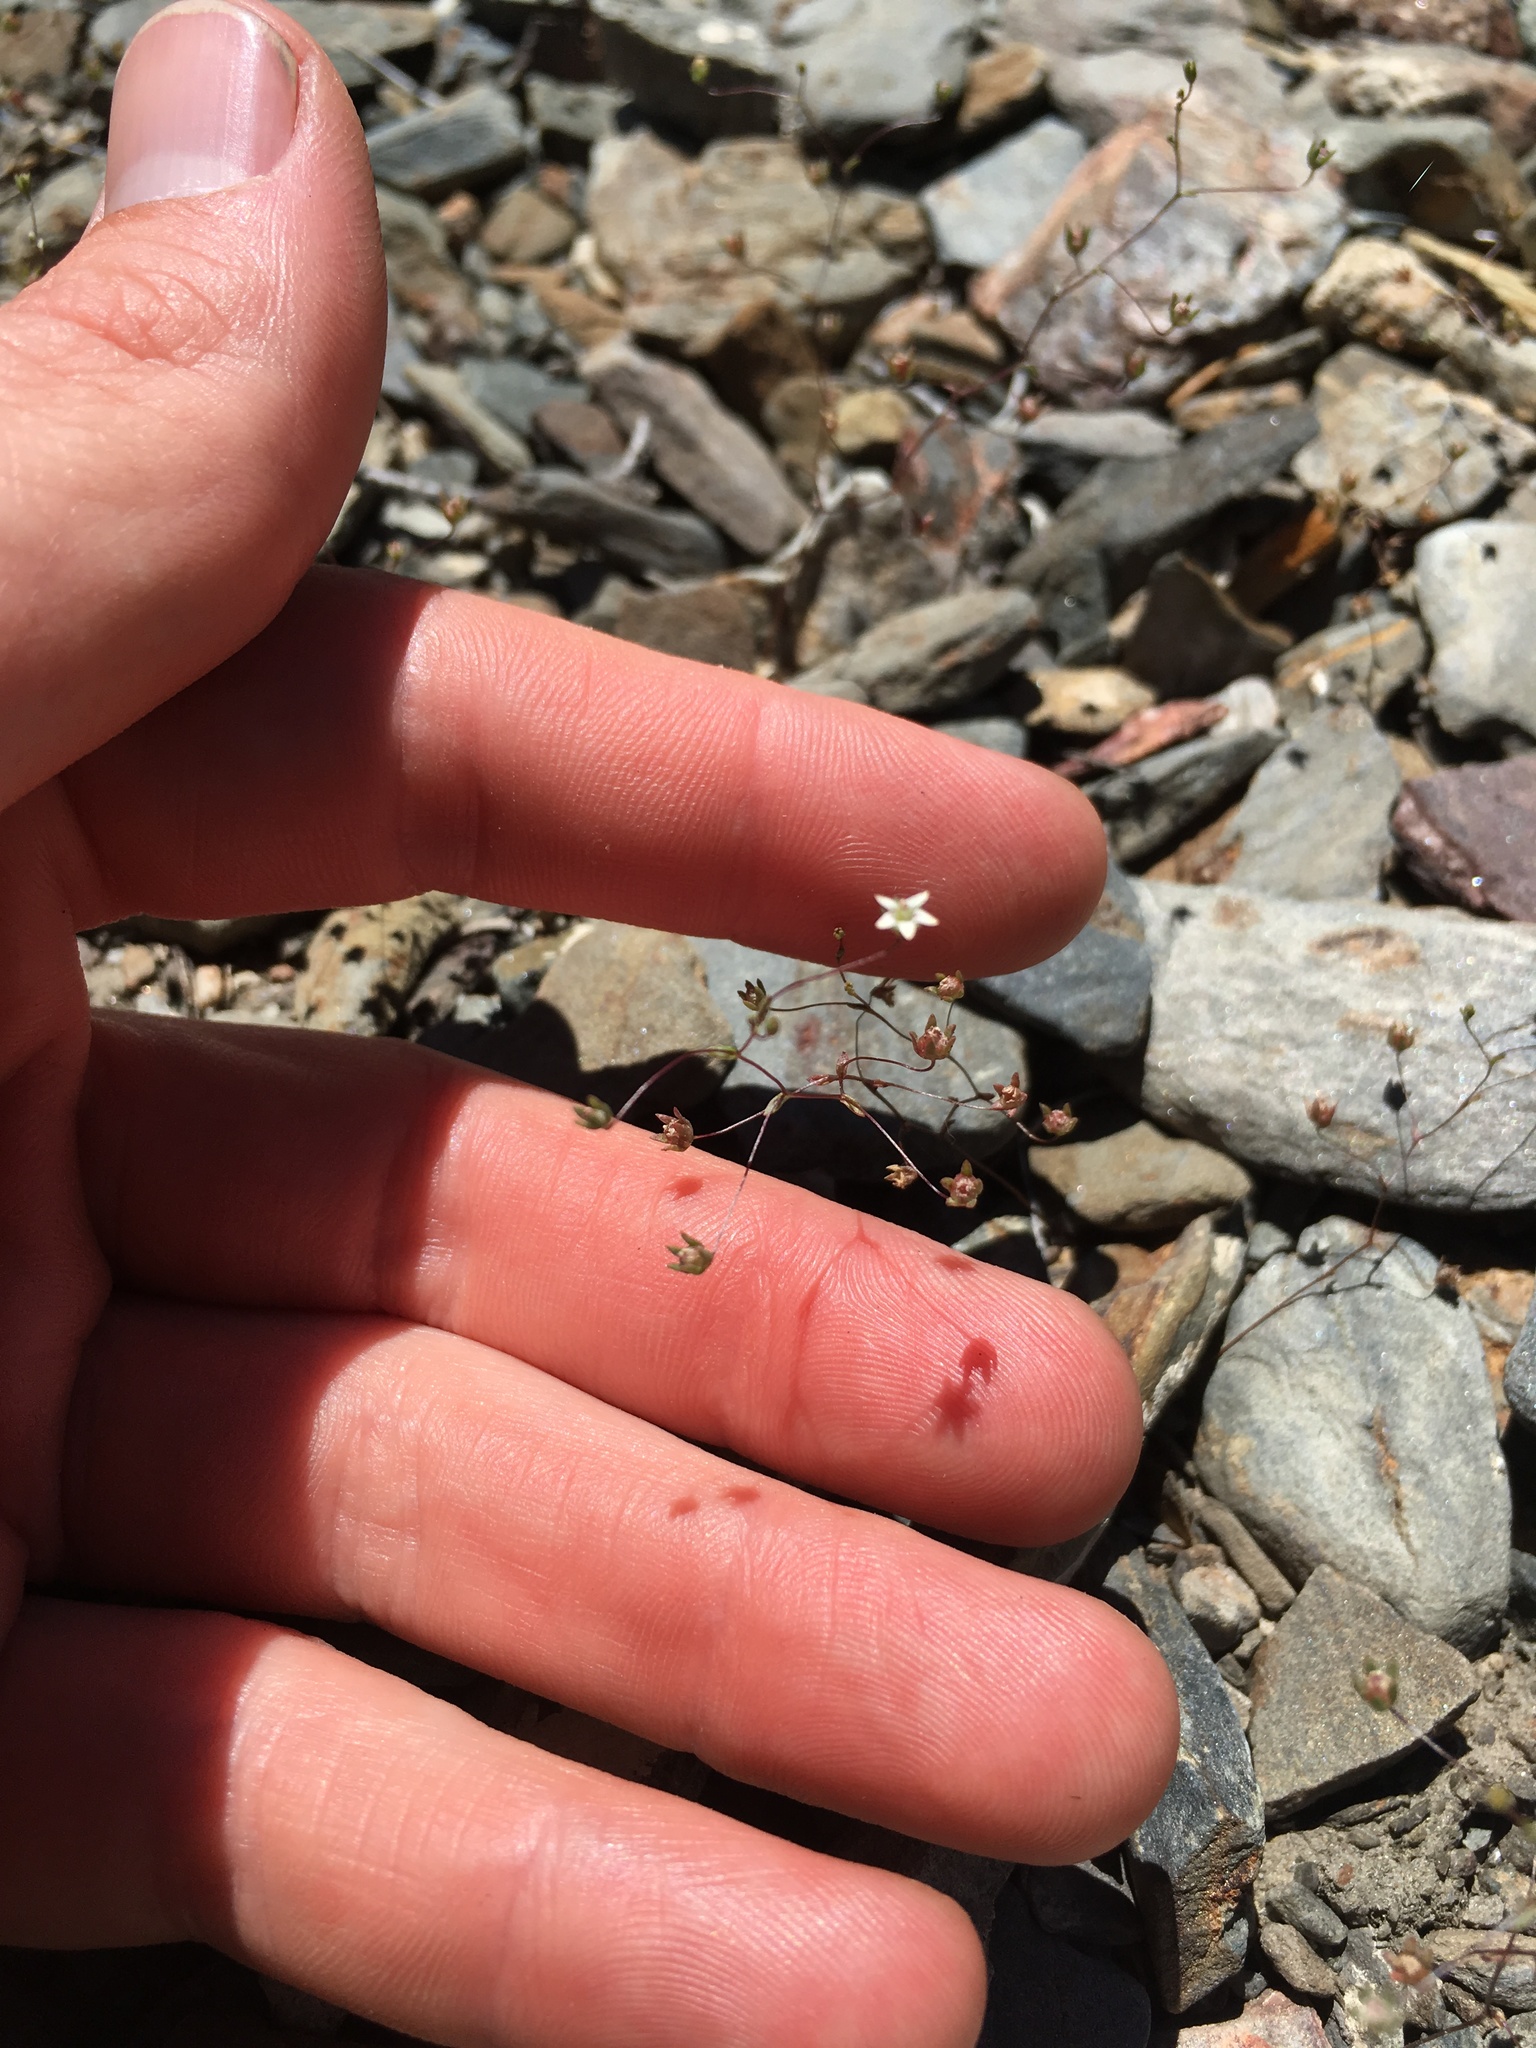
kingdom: Plantae
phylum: Tracheophyta
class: Magnoliopsida
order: Asterales
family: Campanulaceae
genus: Nemacladus
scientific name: Nemacladus inyoensis
